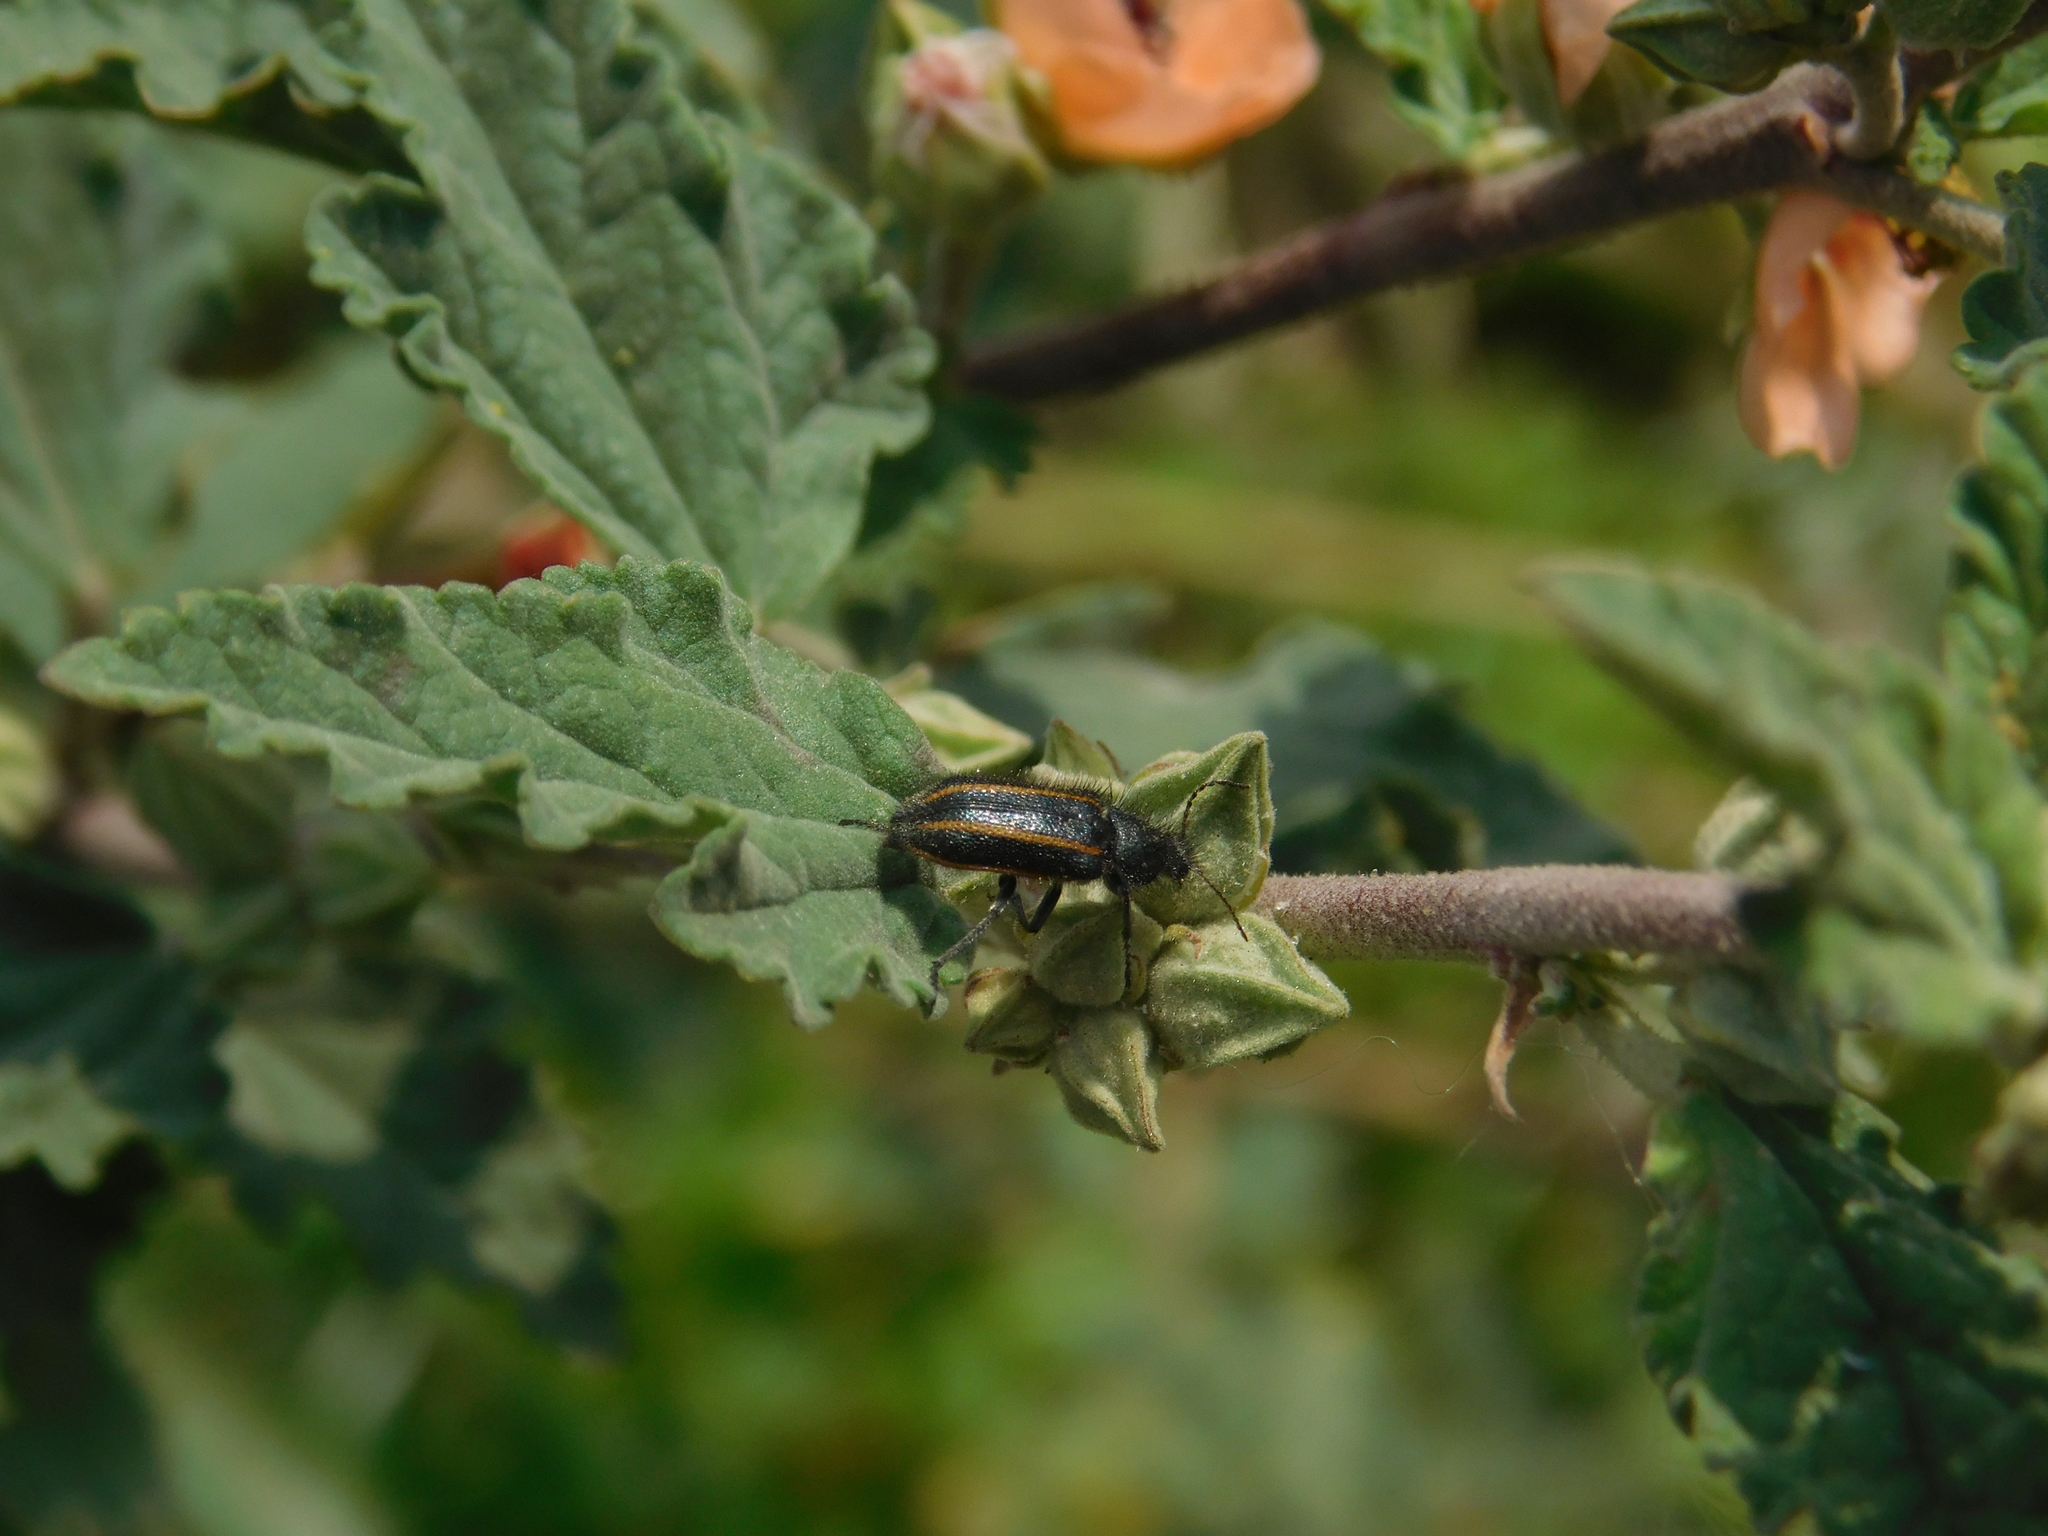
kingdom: Animalia
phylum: Arthropoda
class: Insecta
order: Coleoptera
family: Melyridae
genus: Astylus
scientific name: Astylus
